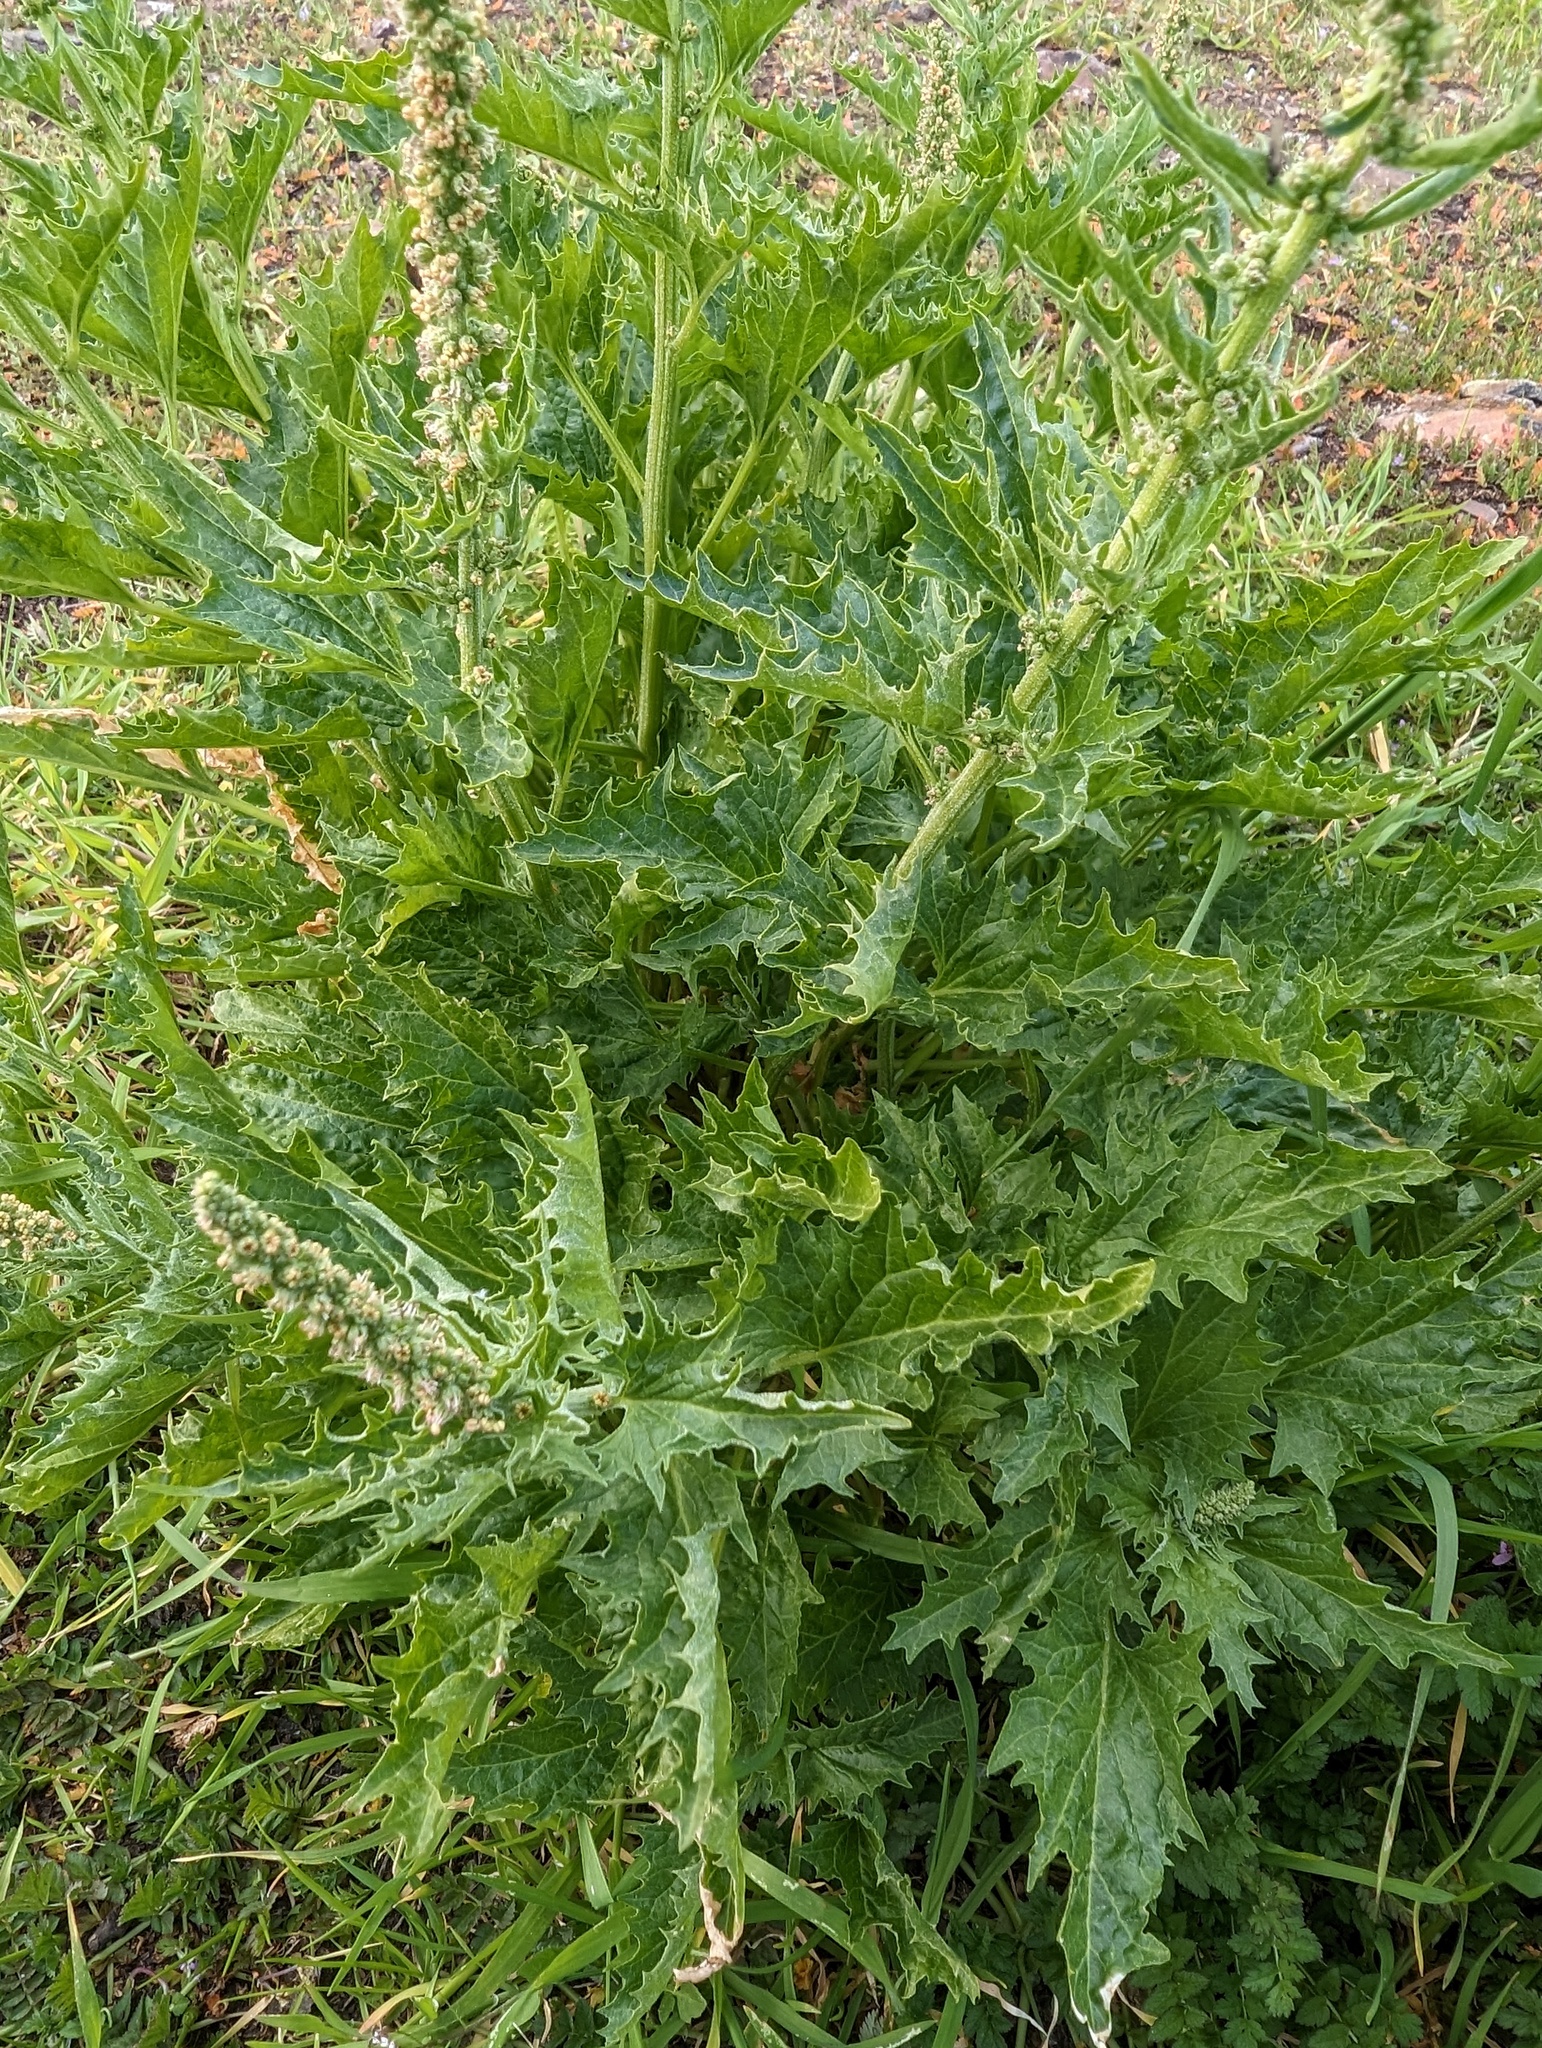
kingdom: Plantae
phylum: Tracheophyta
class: Magnoliopsida
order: Caryophyllales
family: Amaranthaceae
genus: Blitum
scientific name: Blitum californicum
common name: California goosefoot
